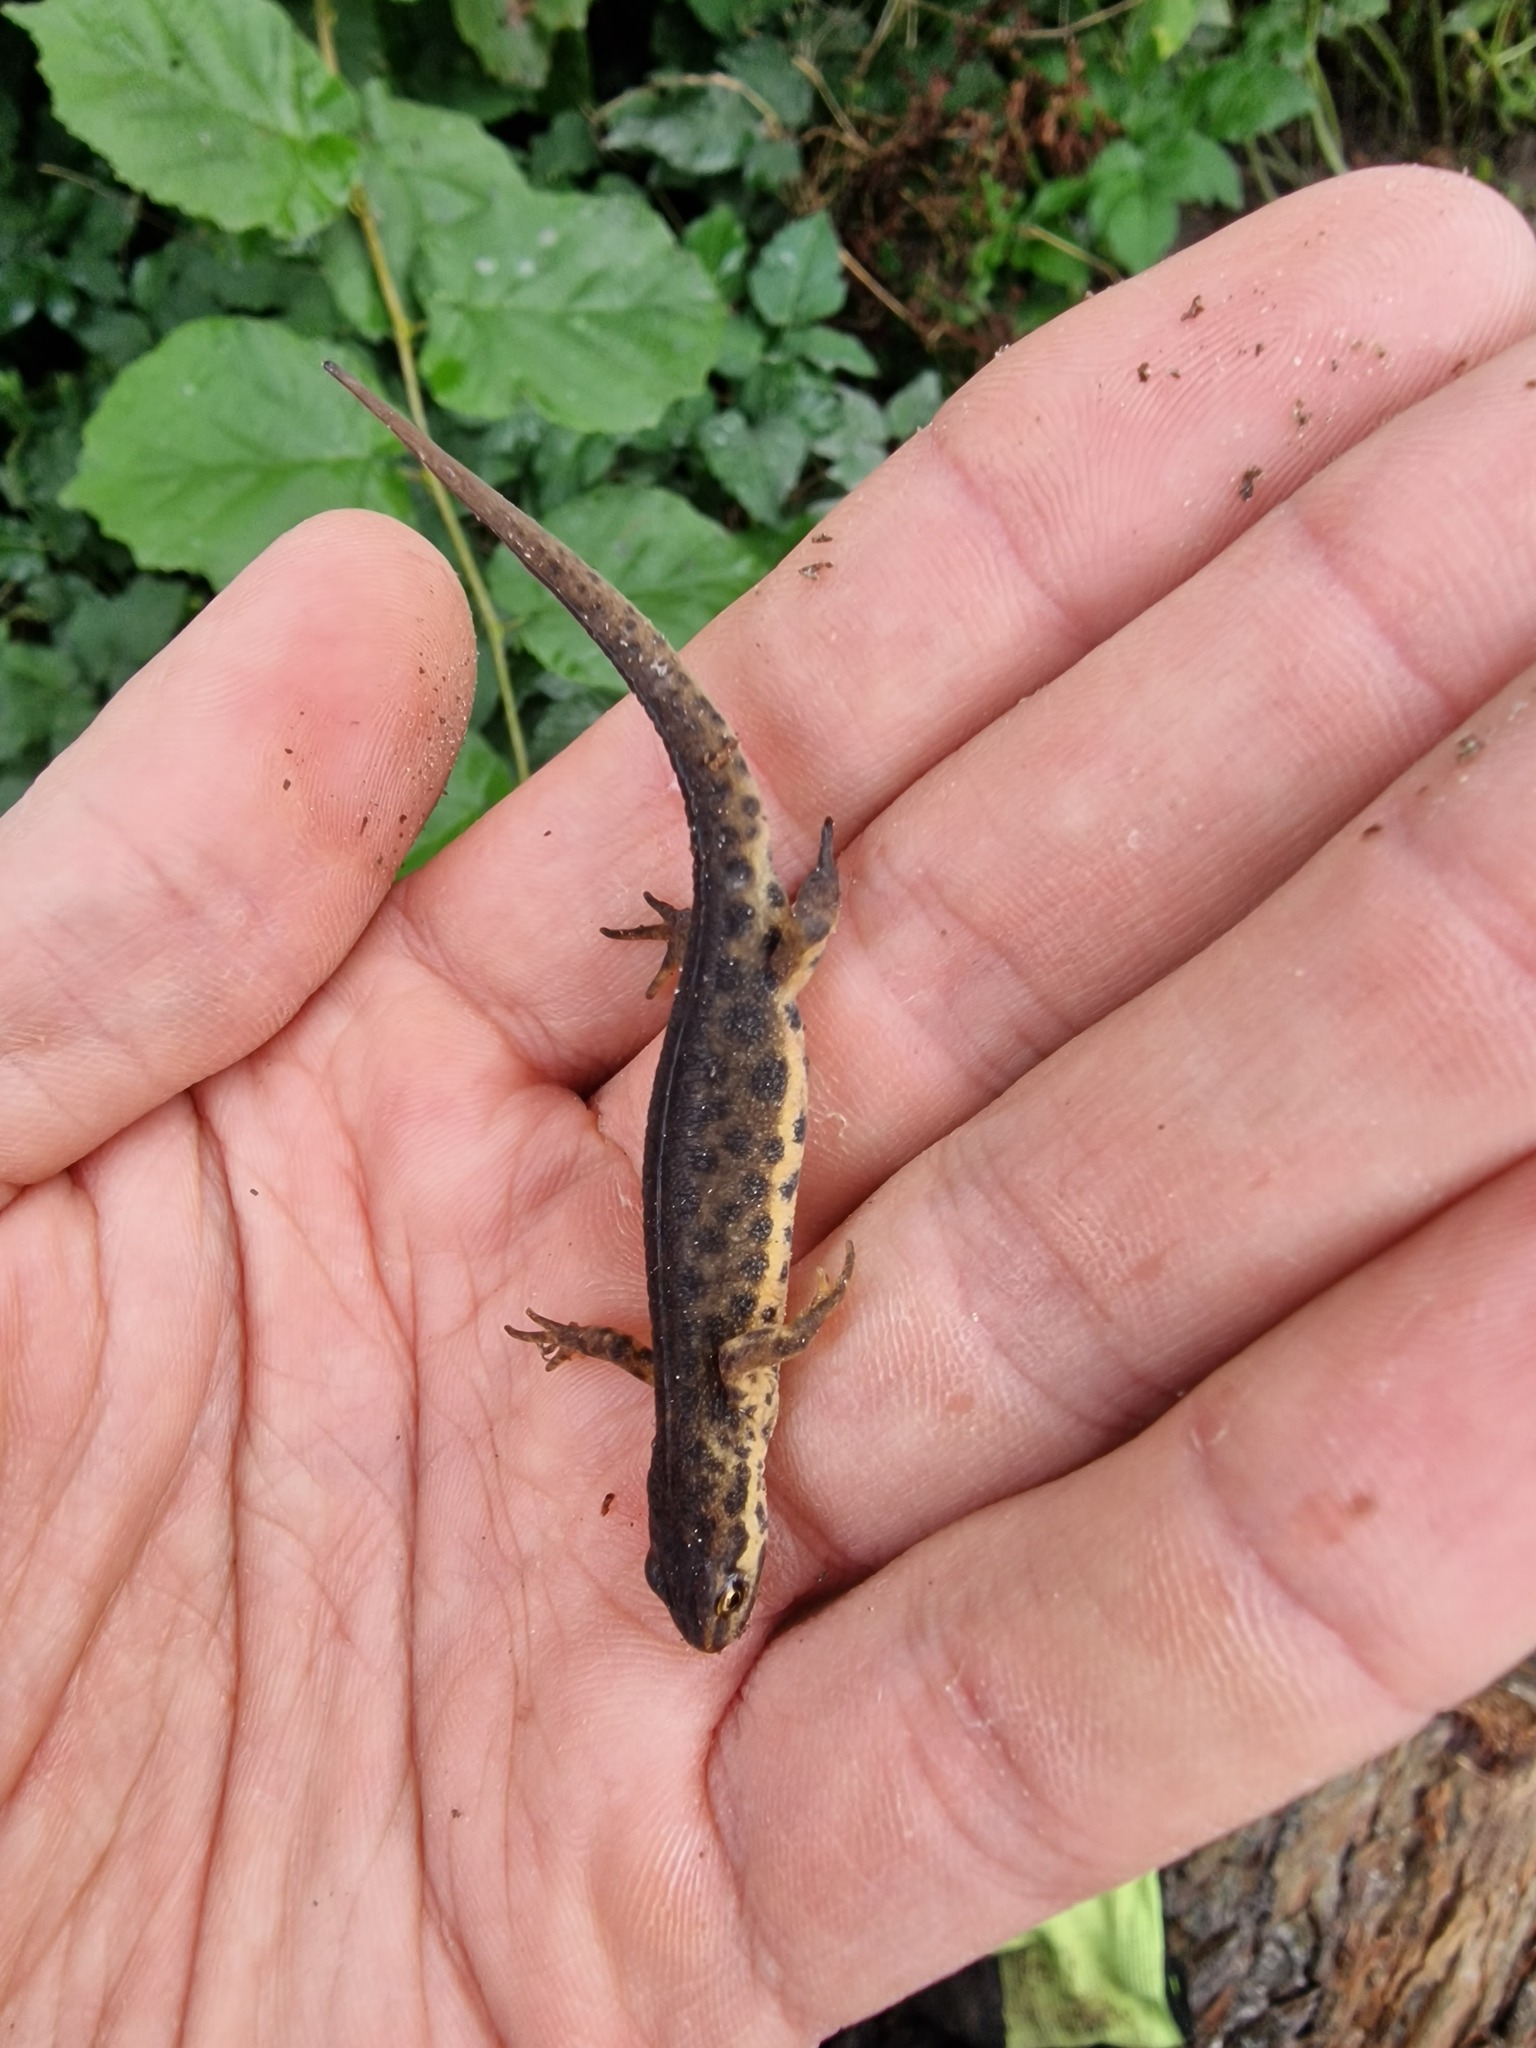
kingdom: Animalia
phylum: Chordata
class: Amphibia
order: Caudata
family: Salamandridae
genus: Lissotriton
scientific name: Lissotriton vulgaris
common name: Smooth newt
